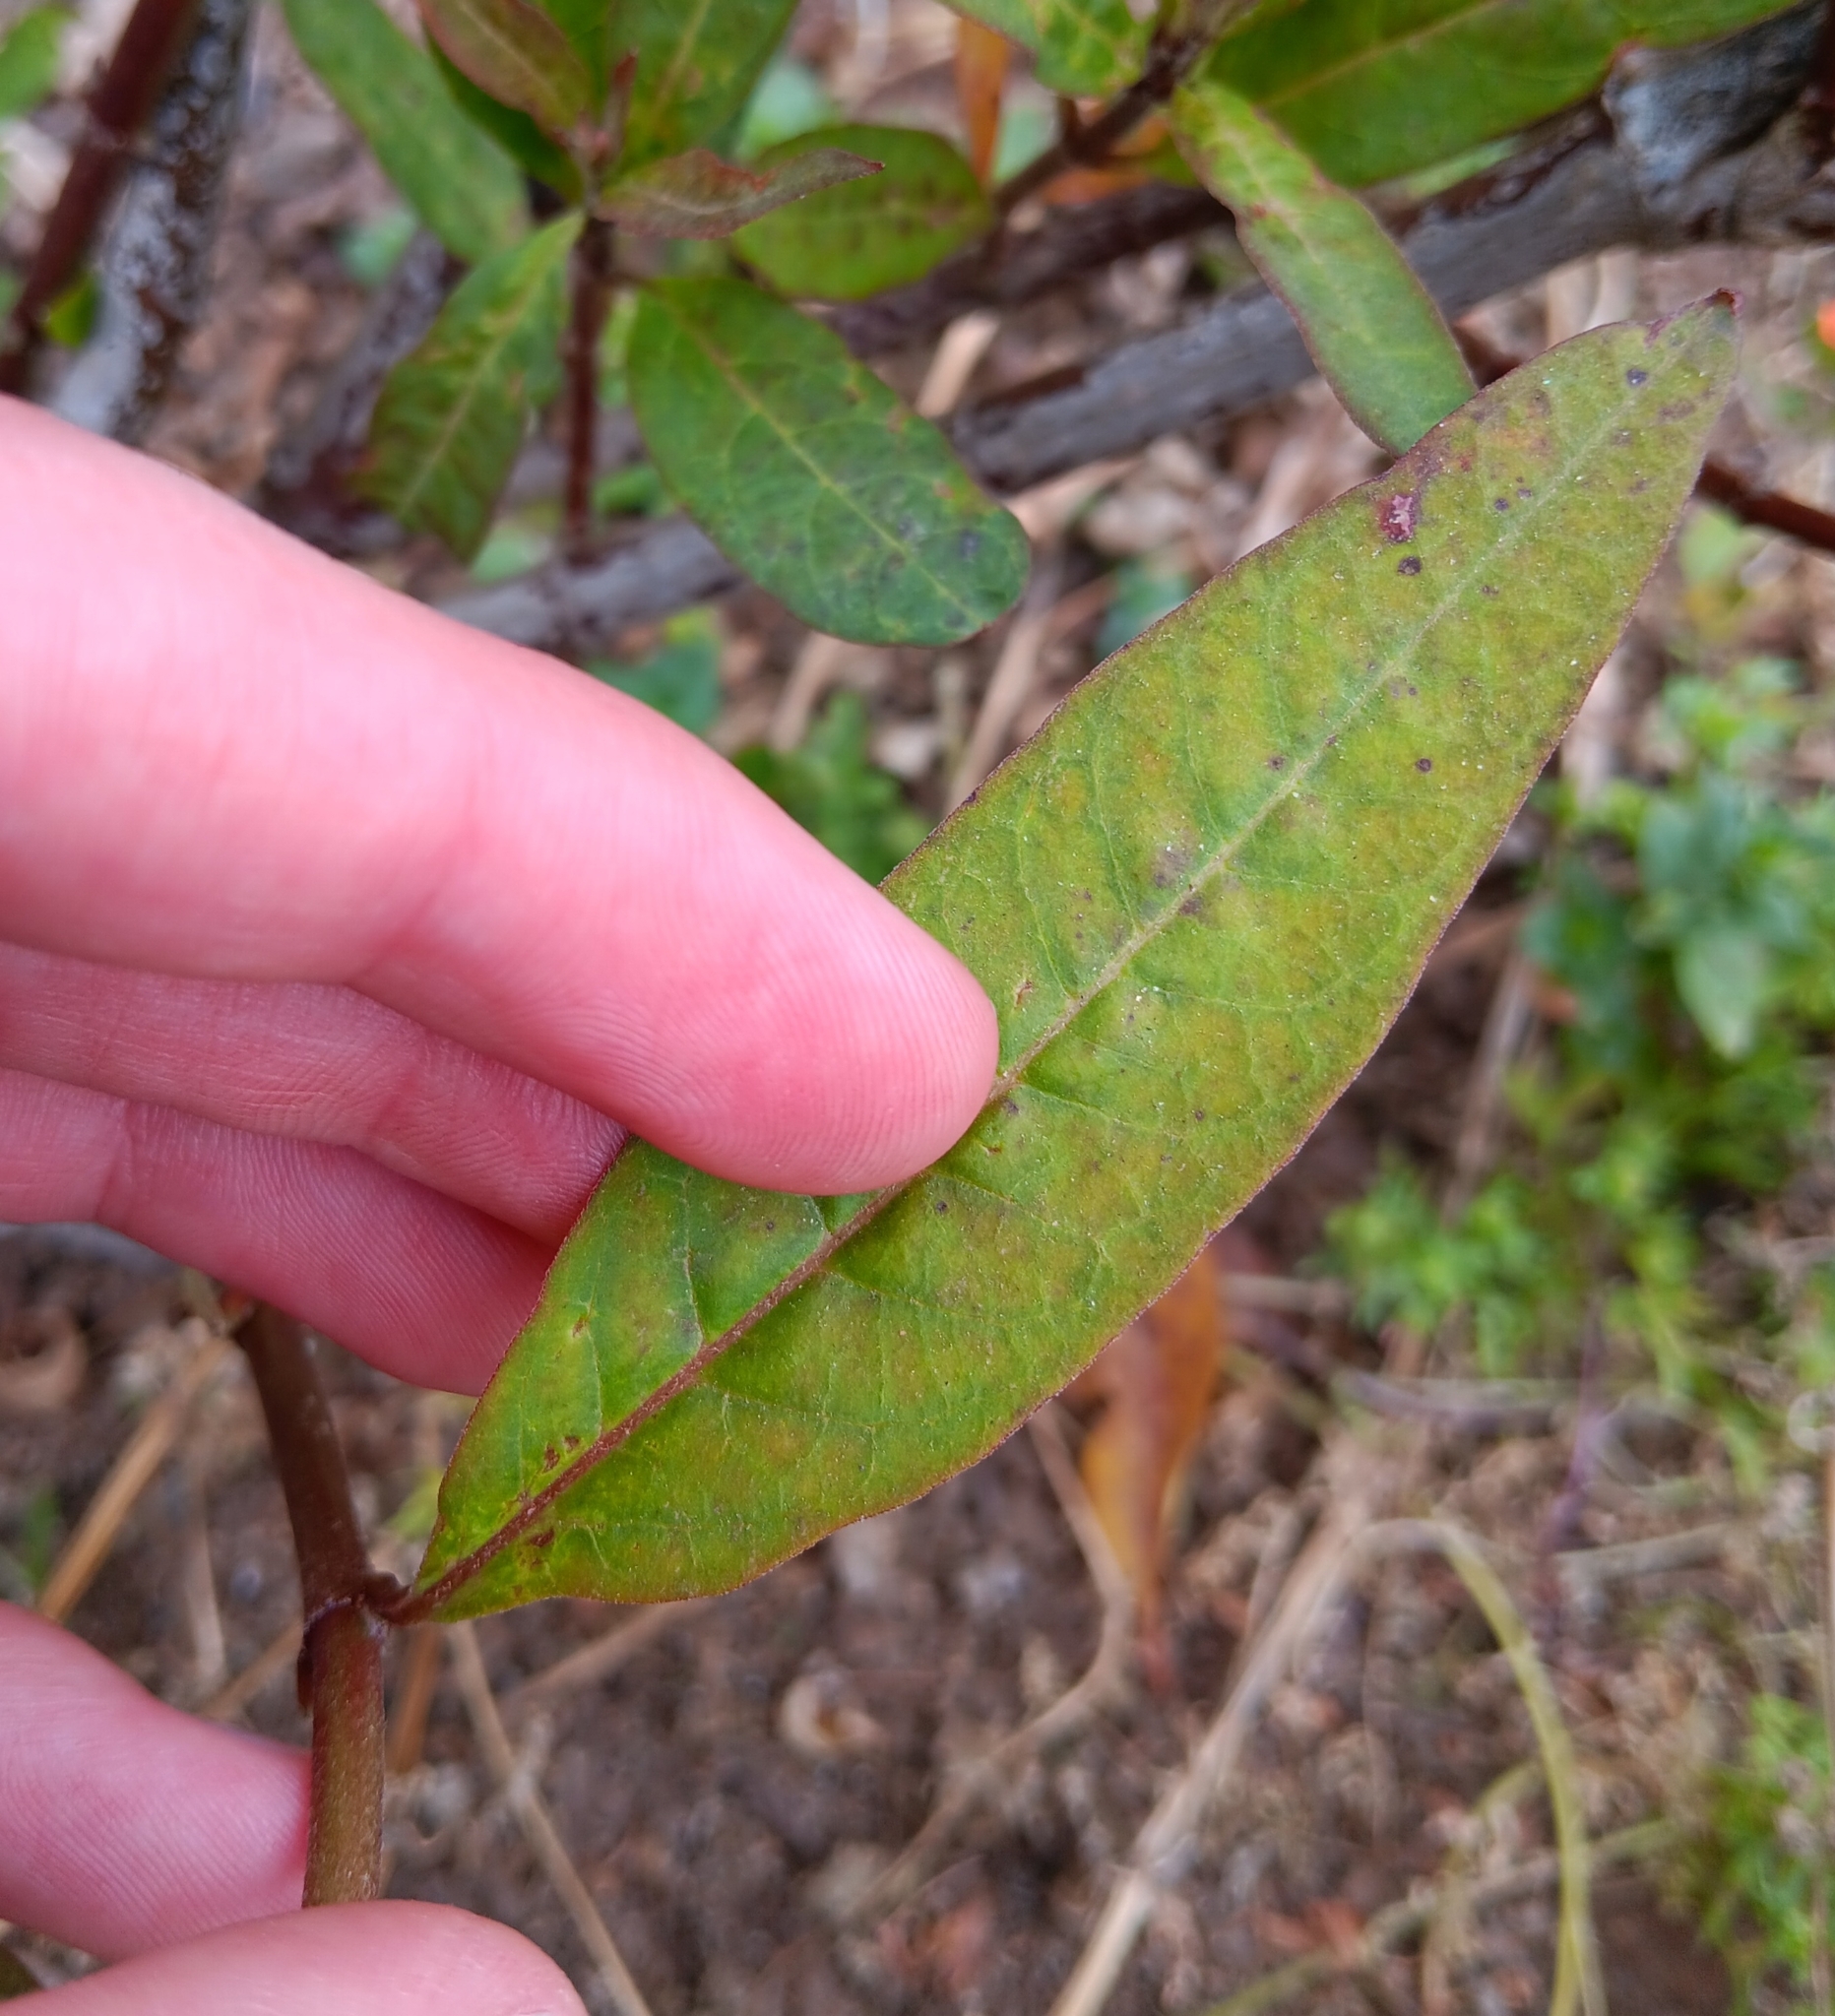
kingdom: Plantae
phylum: Tracheophyta
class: Magnoliopsida
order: Gentianales
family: Apocynaceae
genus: Asclepias
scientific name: Asclepias curassavica
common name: Bloodflower
